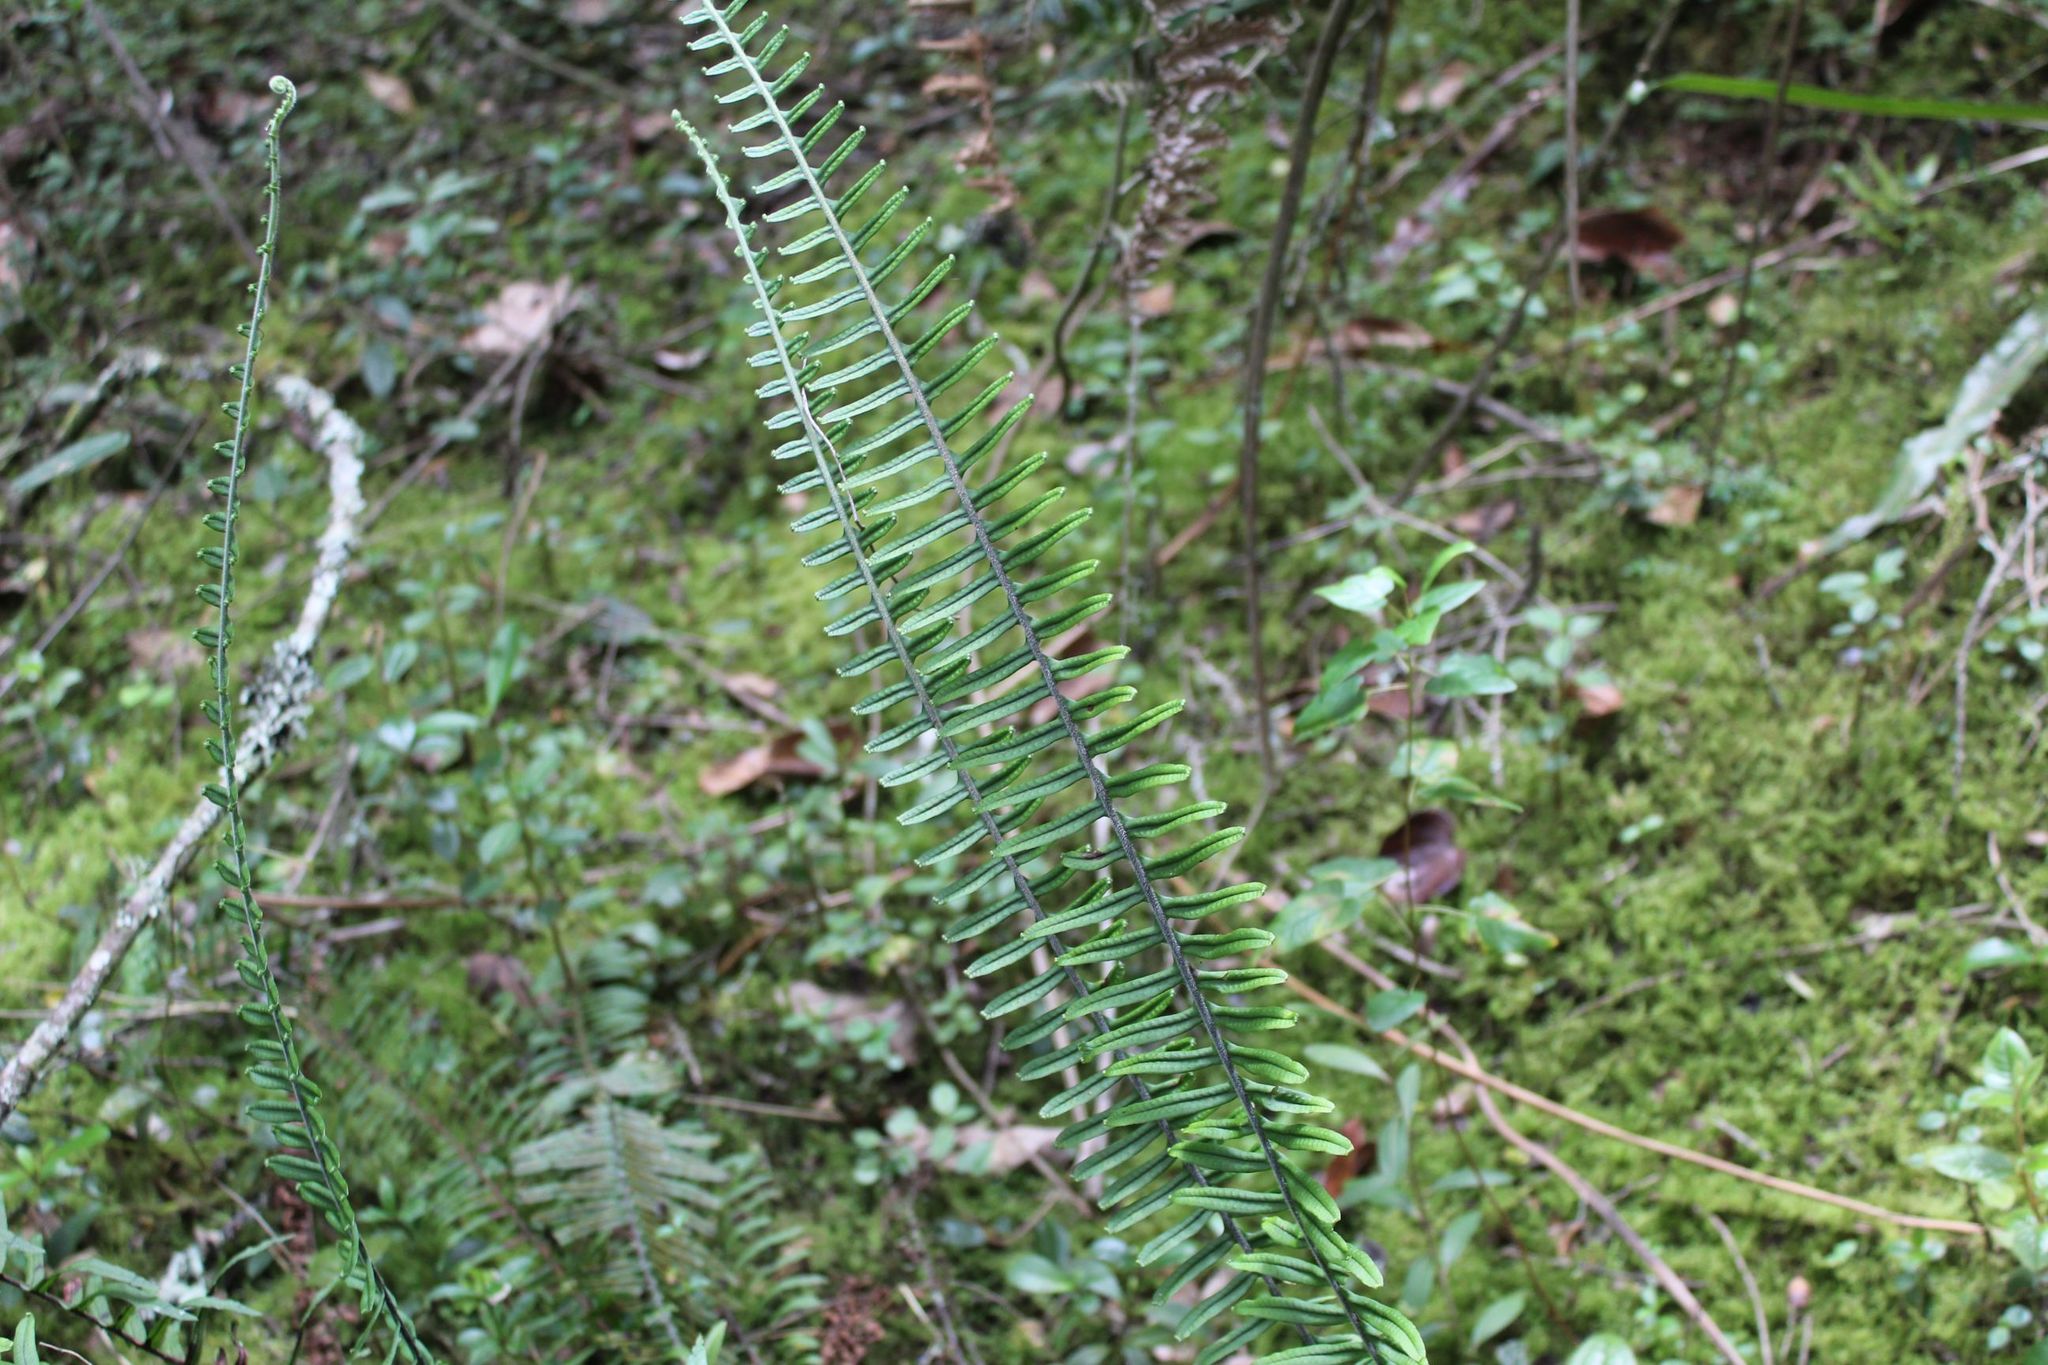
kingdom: Plantae
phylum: Tracheophyta
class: Polypodiopsida
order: Polypodiales
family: Polypodiaceae
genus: Pecluma
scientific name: Pecluma hygrometrica
